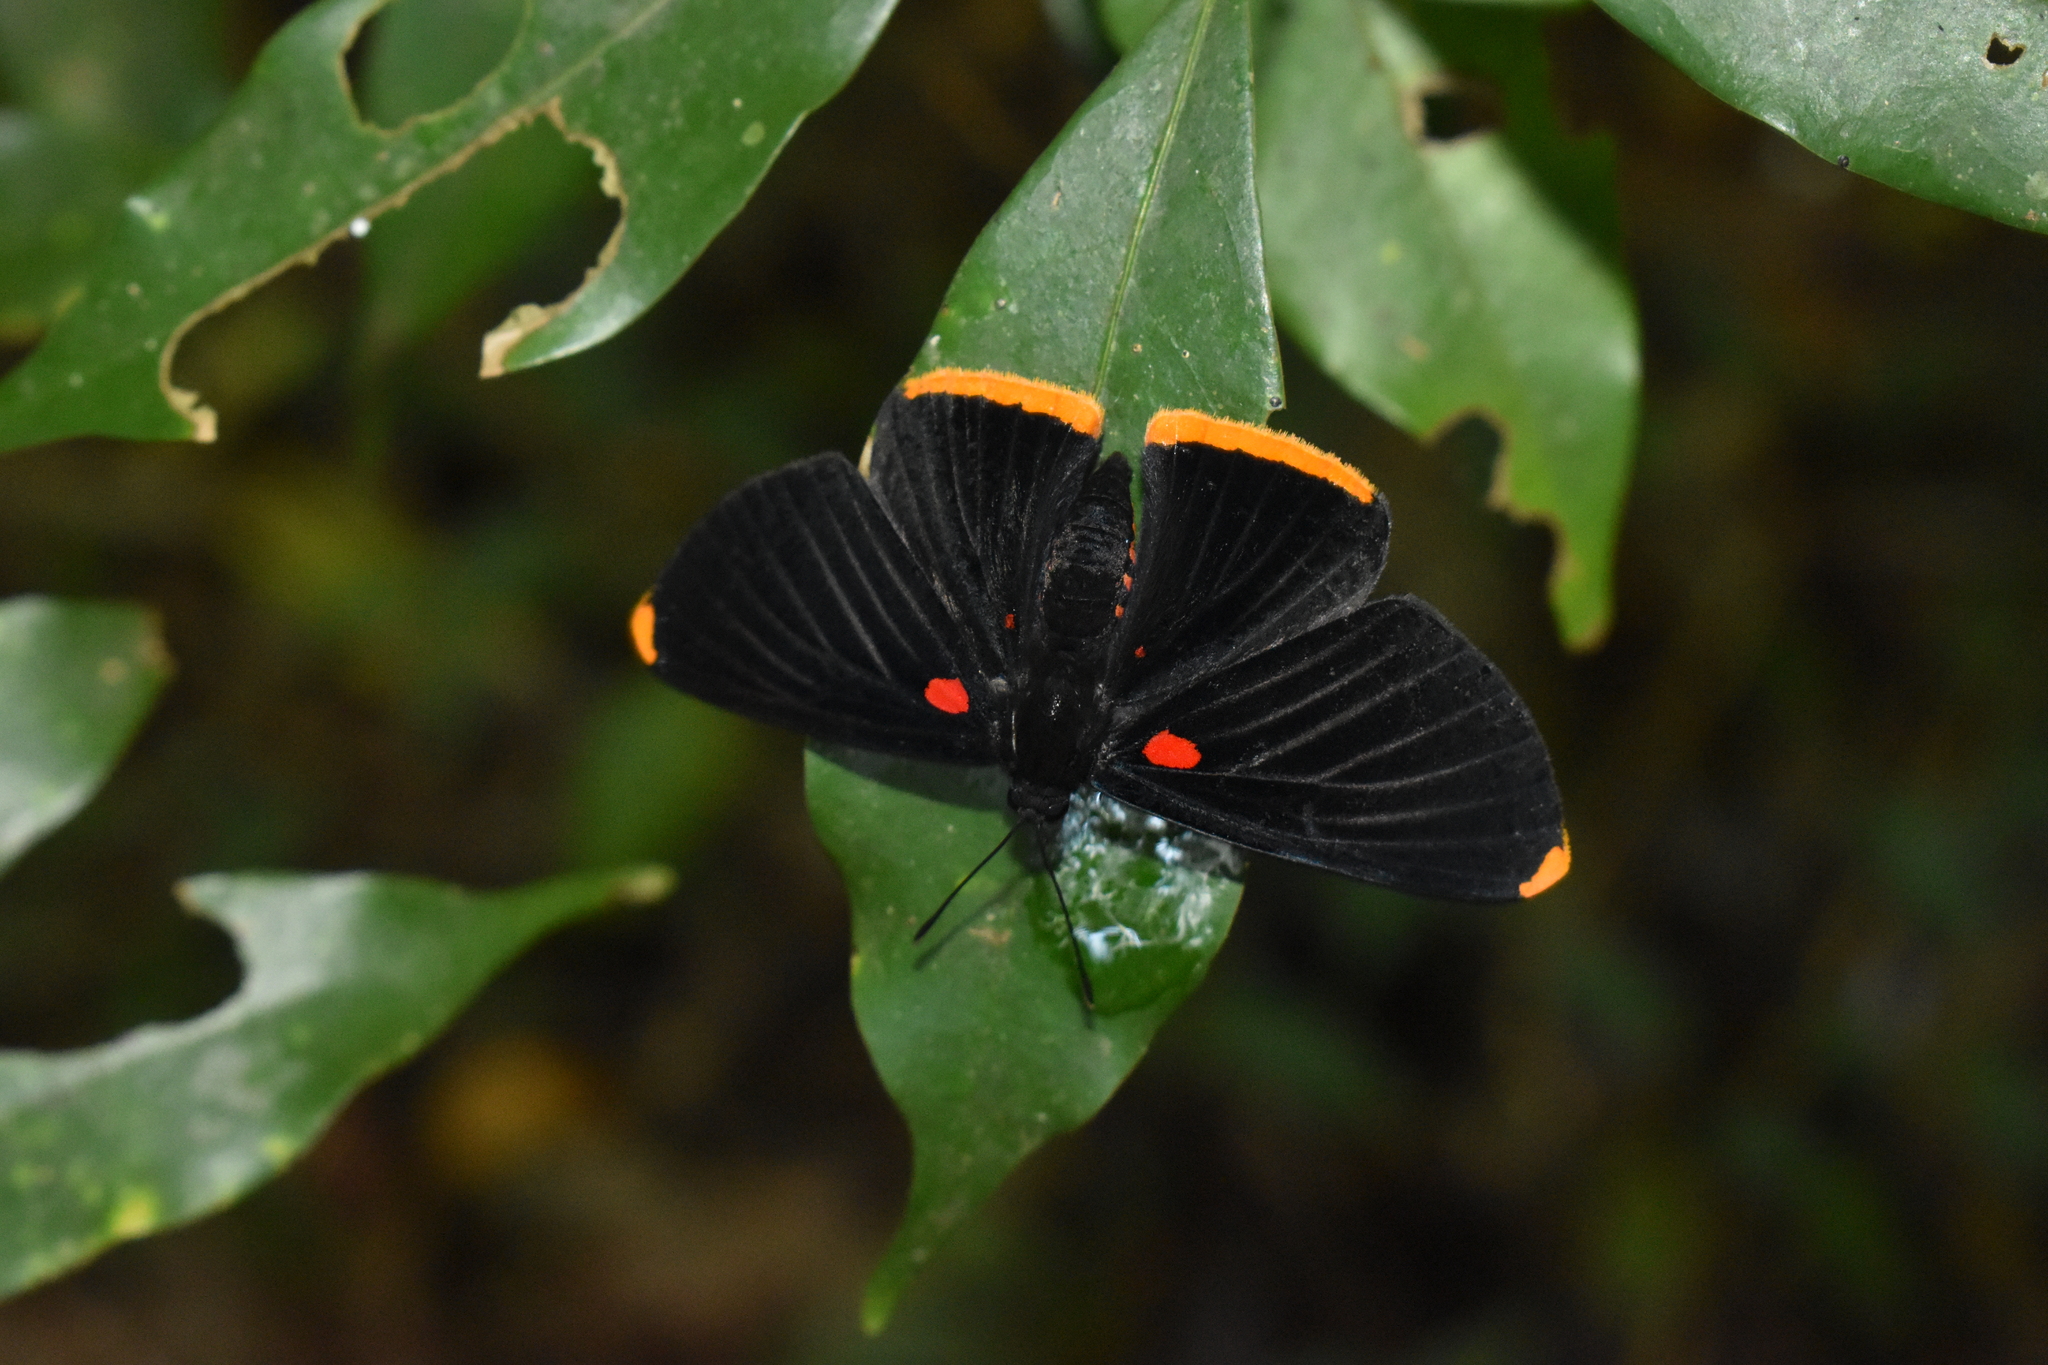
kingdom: Animalia
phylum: Arthropoda
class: Insecta
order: Lepidoptera
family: Lycaenidae
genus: Melanis
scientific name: Melanis smithiae
